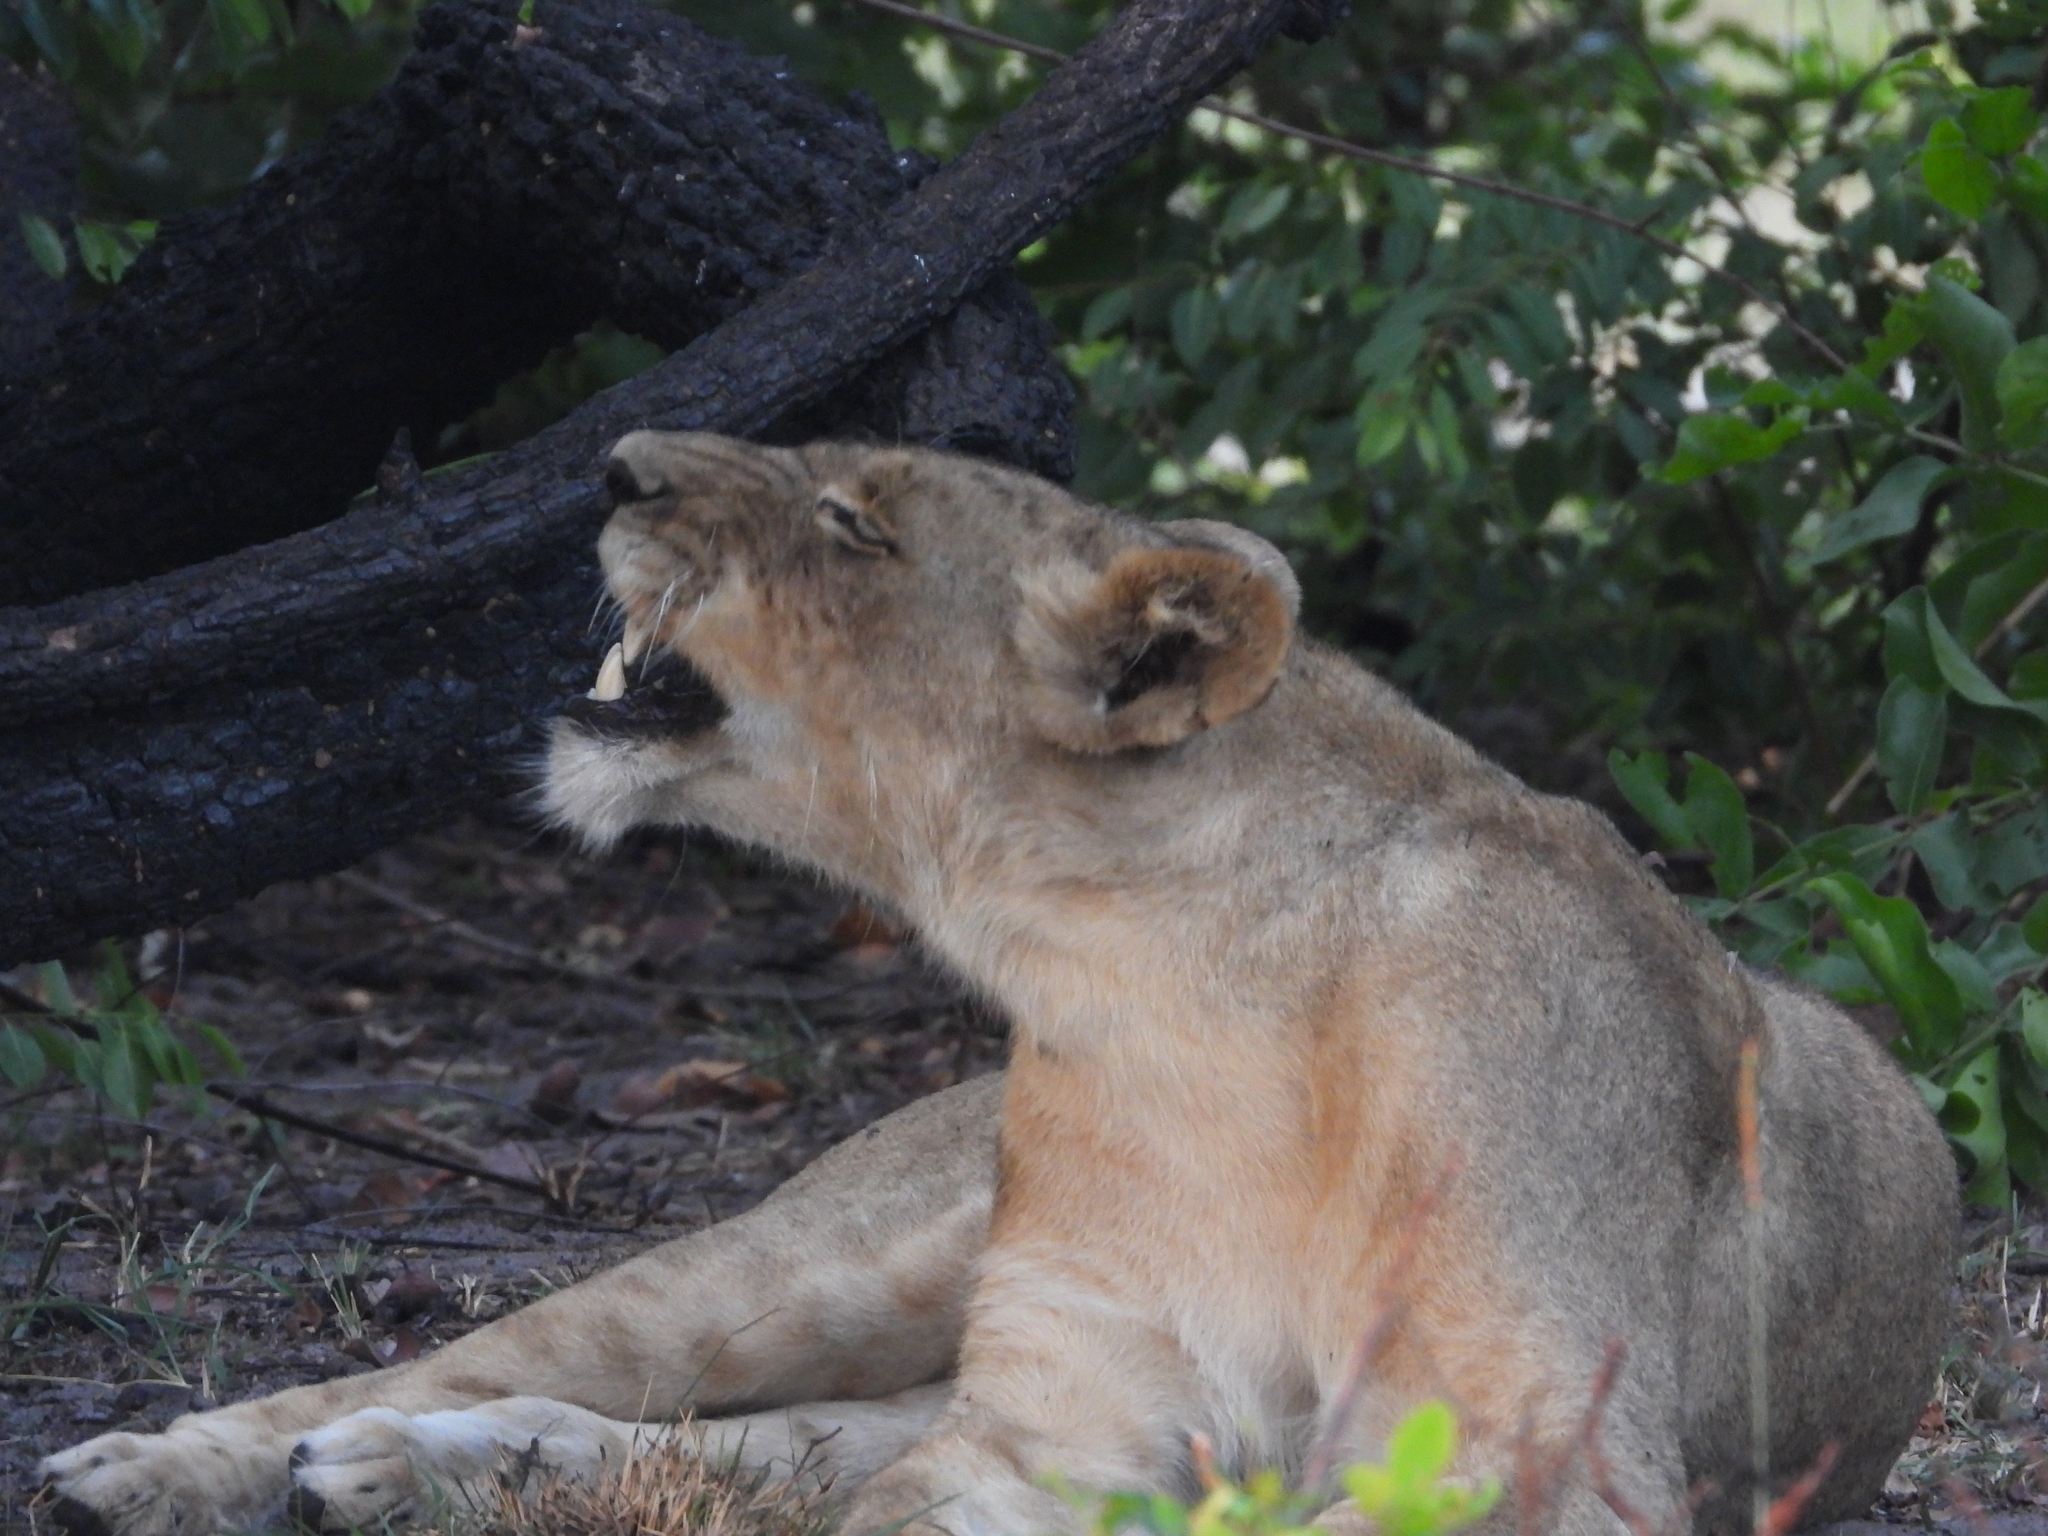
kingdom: Animalia
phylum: Chordata
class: Mammalia
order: Carnivora
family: Felidae
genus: Panthera
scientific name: Panthera leo
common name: Lion
